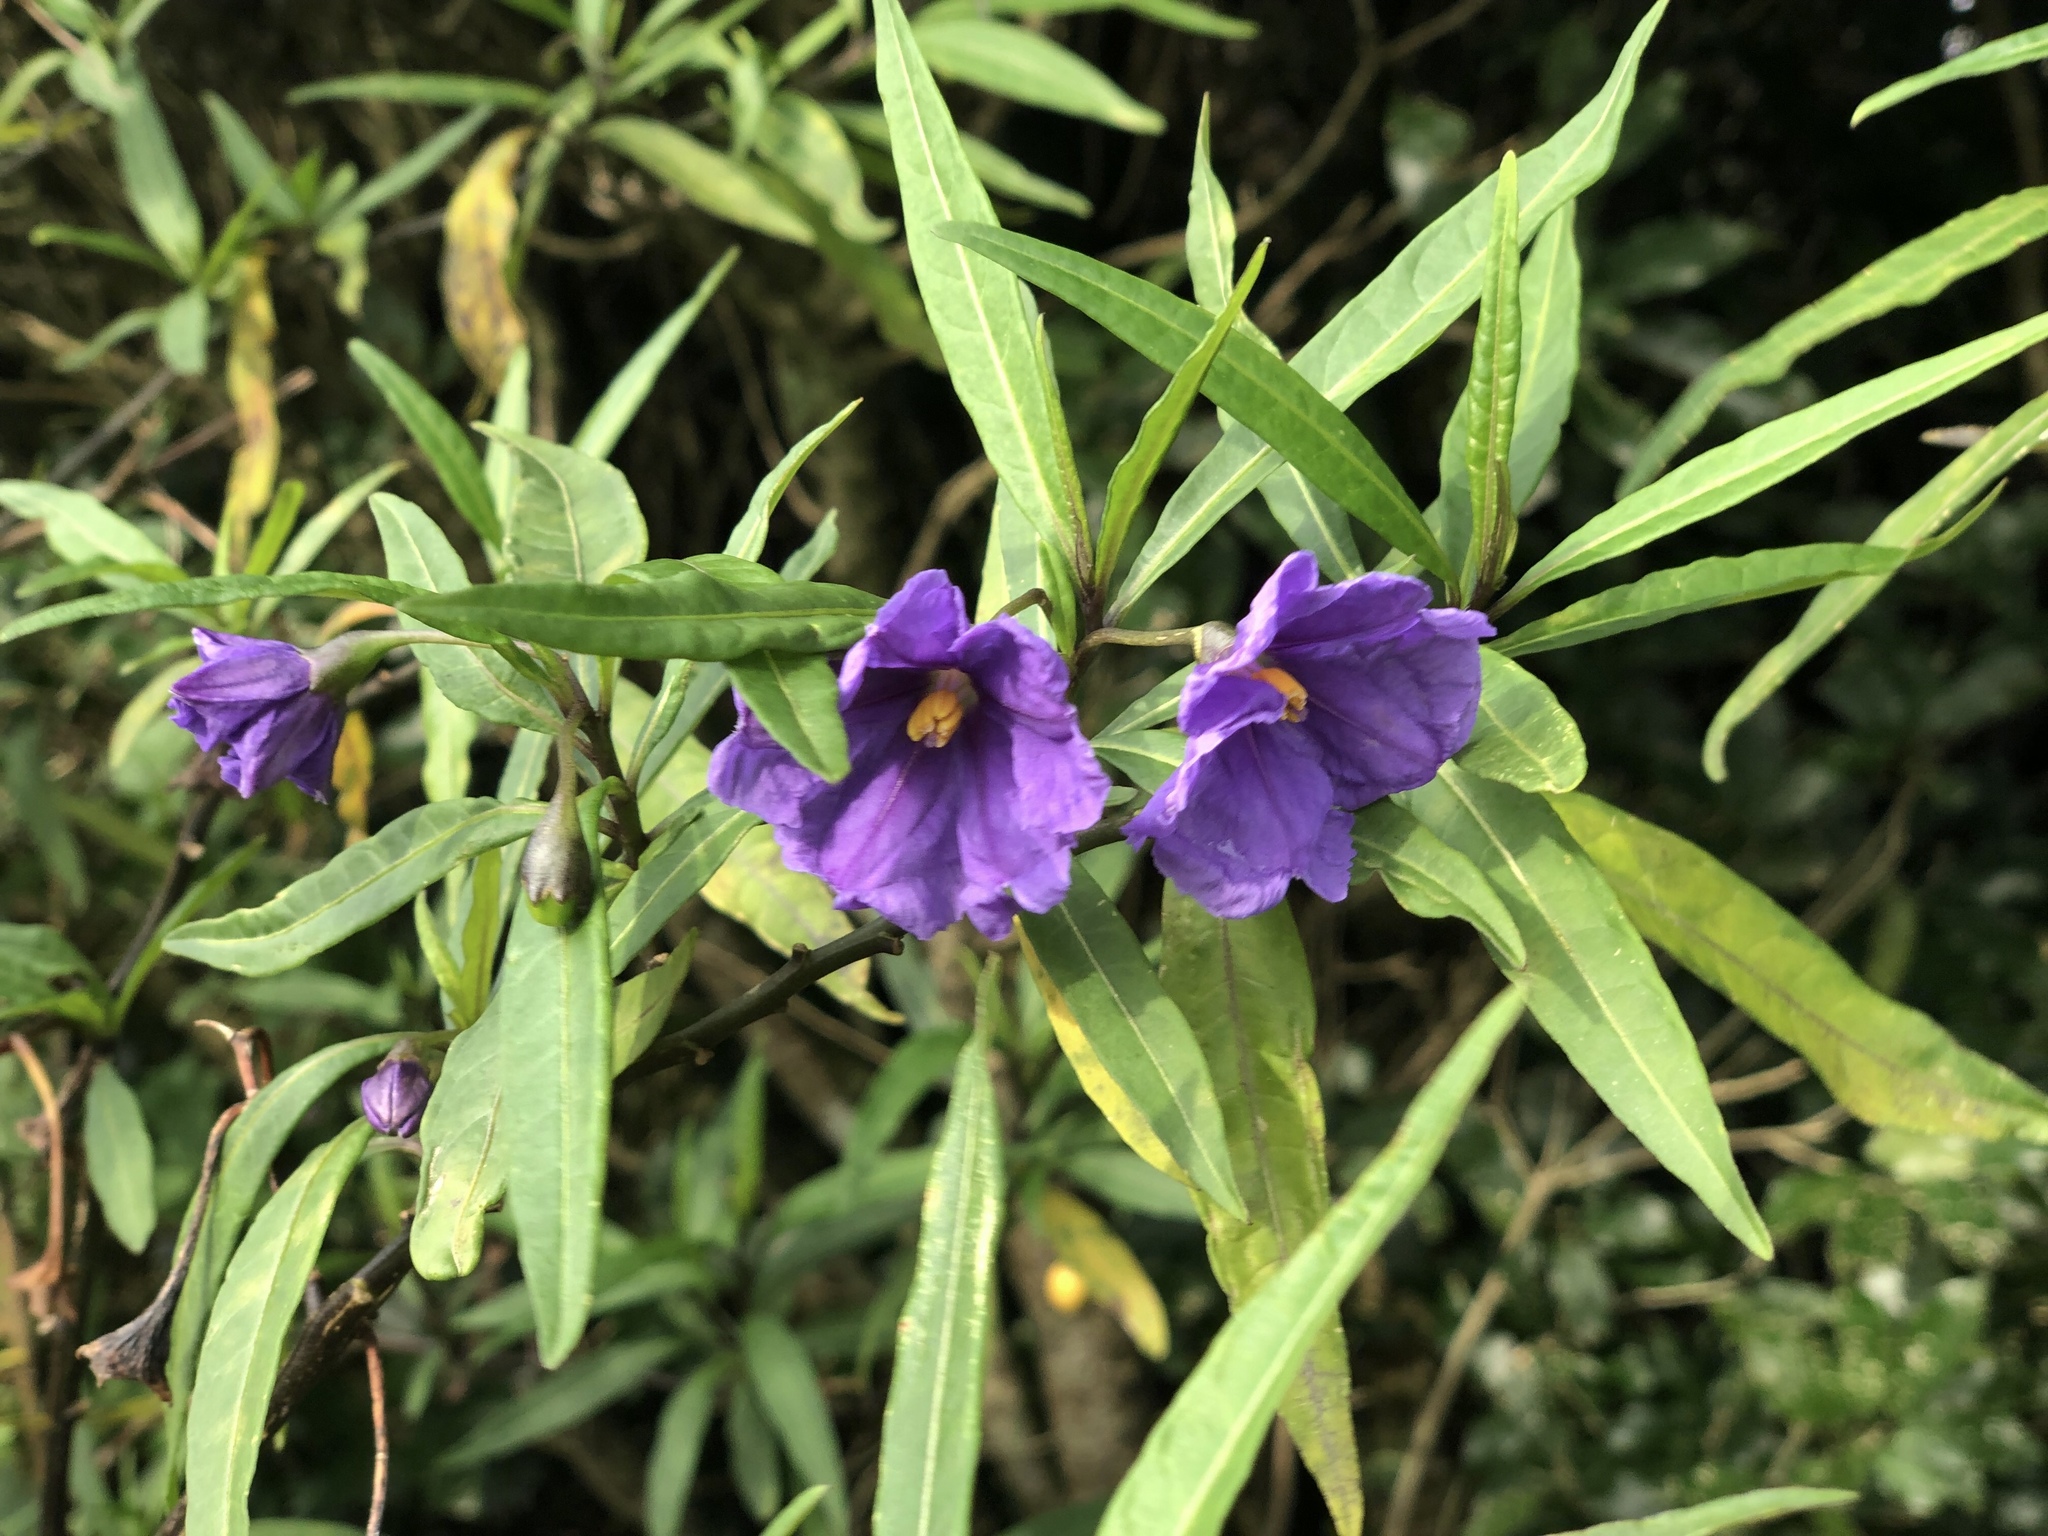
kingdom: Plantae
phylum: Tracheophyta
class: Magnoliopsida
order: Solanales
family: Solanaceae
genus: Solanum
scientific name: Solanum laciniatum
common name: Kangaroo-apple
